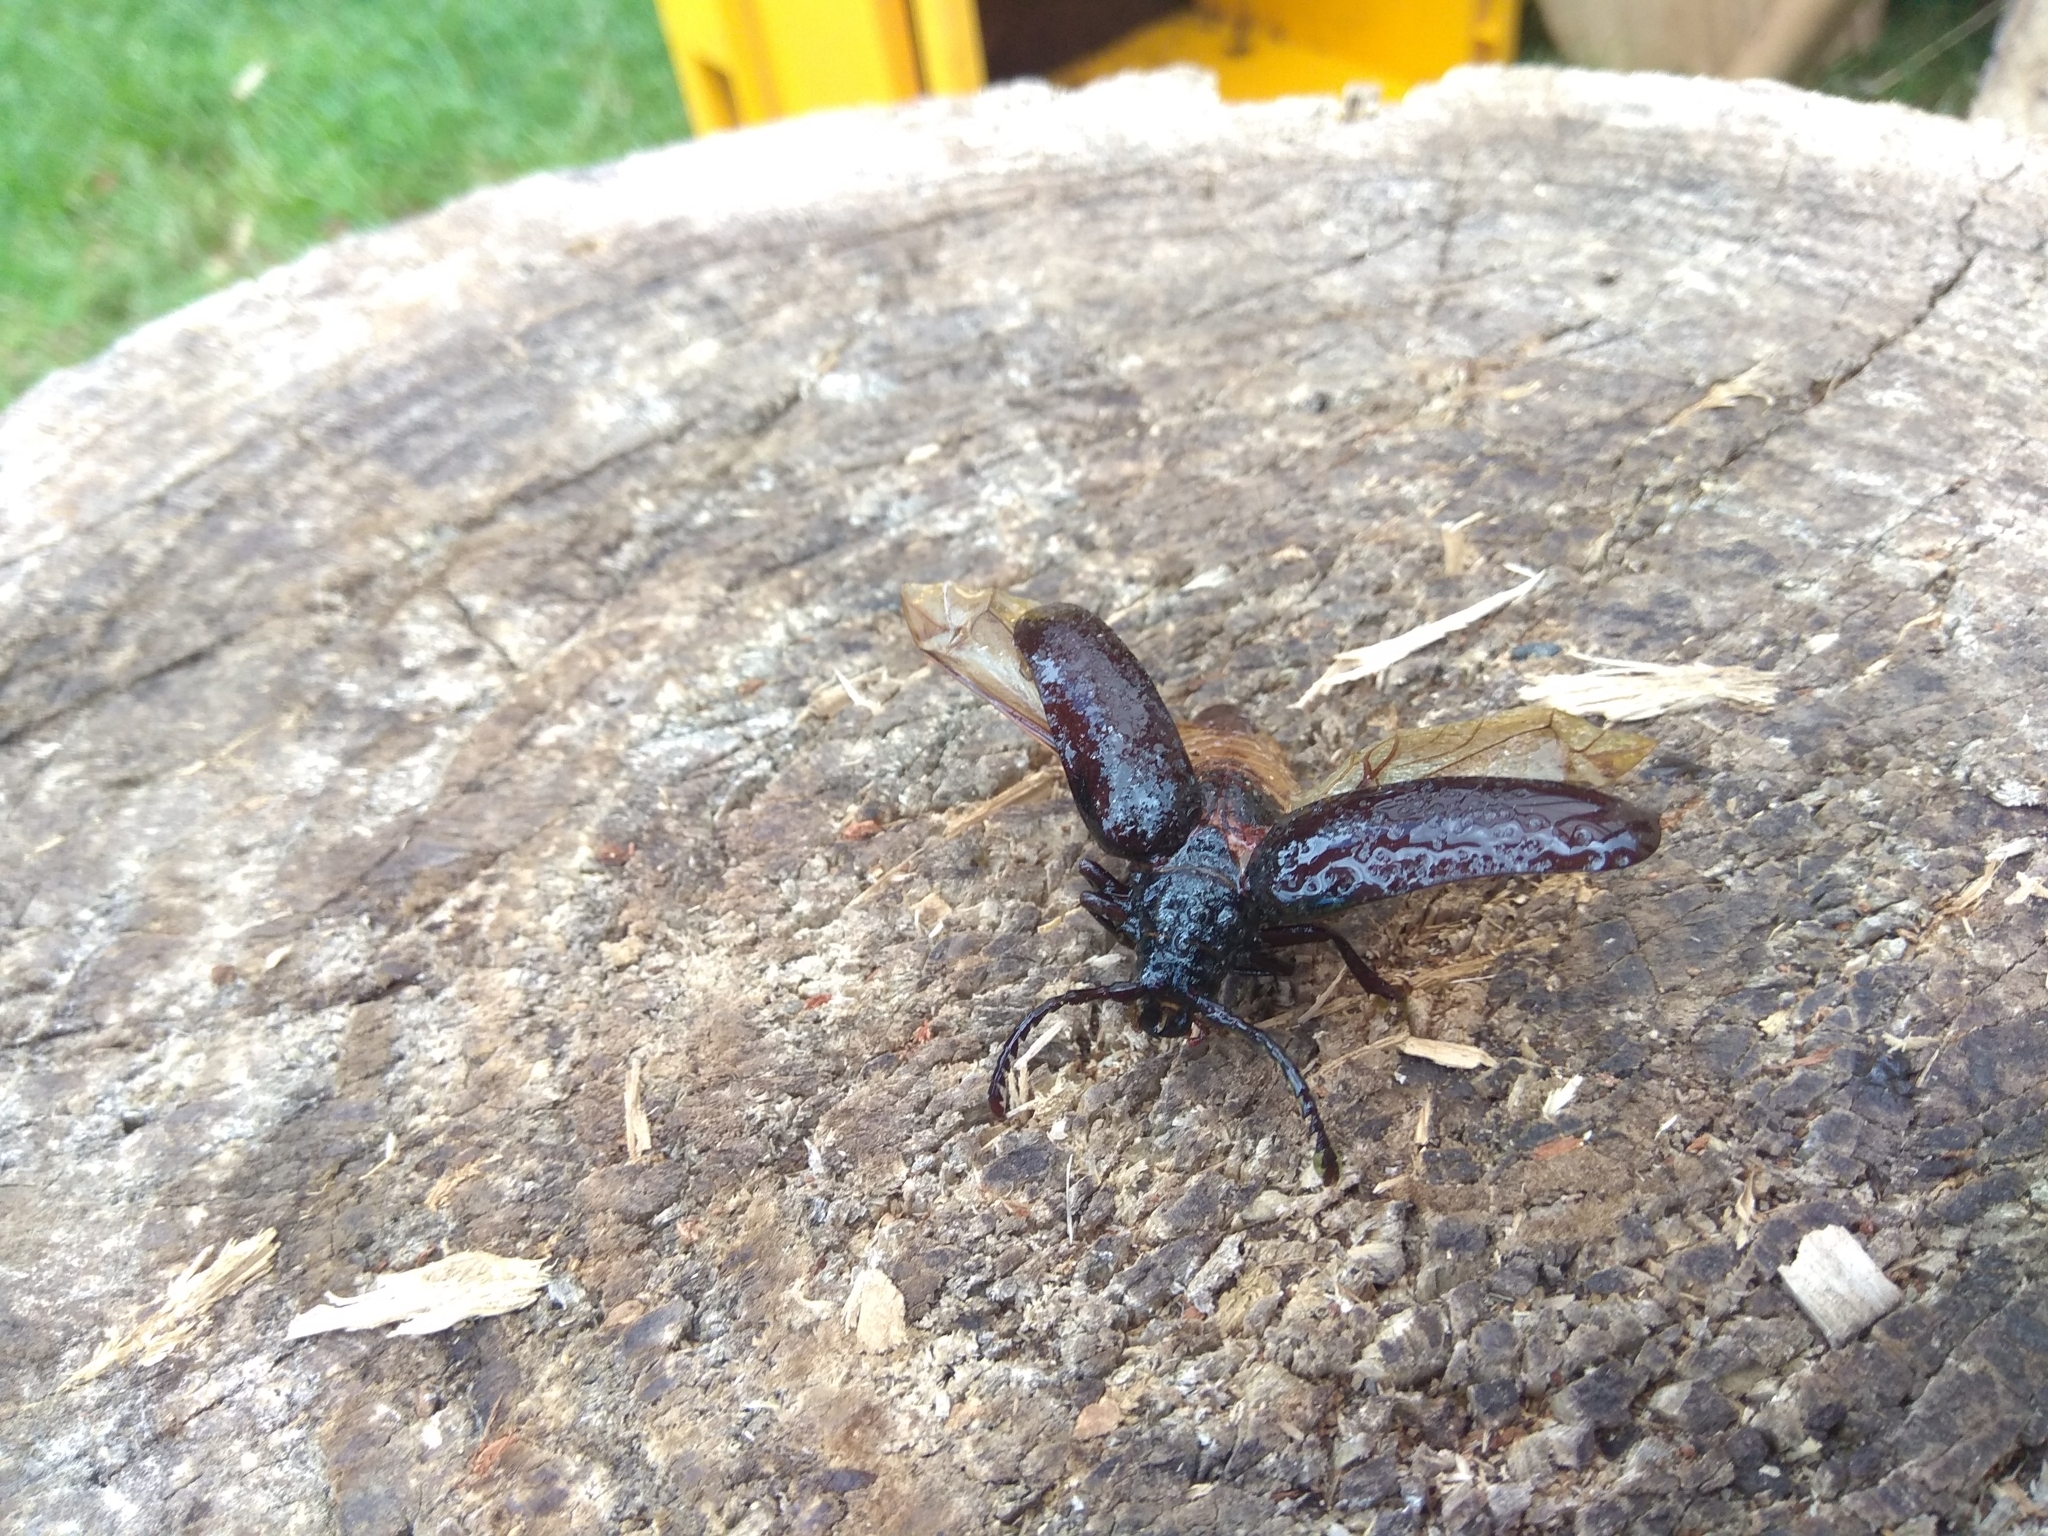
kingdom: Animalia
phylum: Arthropoda
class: Insecta
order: Coleoptera
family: Cerambycidae
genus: Prionus
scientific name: Prionus coriarius
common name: Tanner beetle
